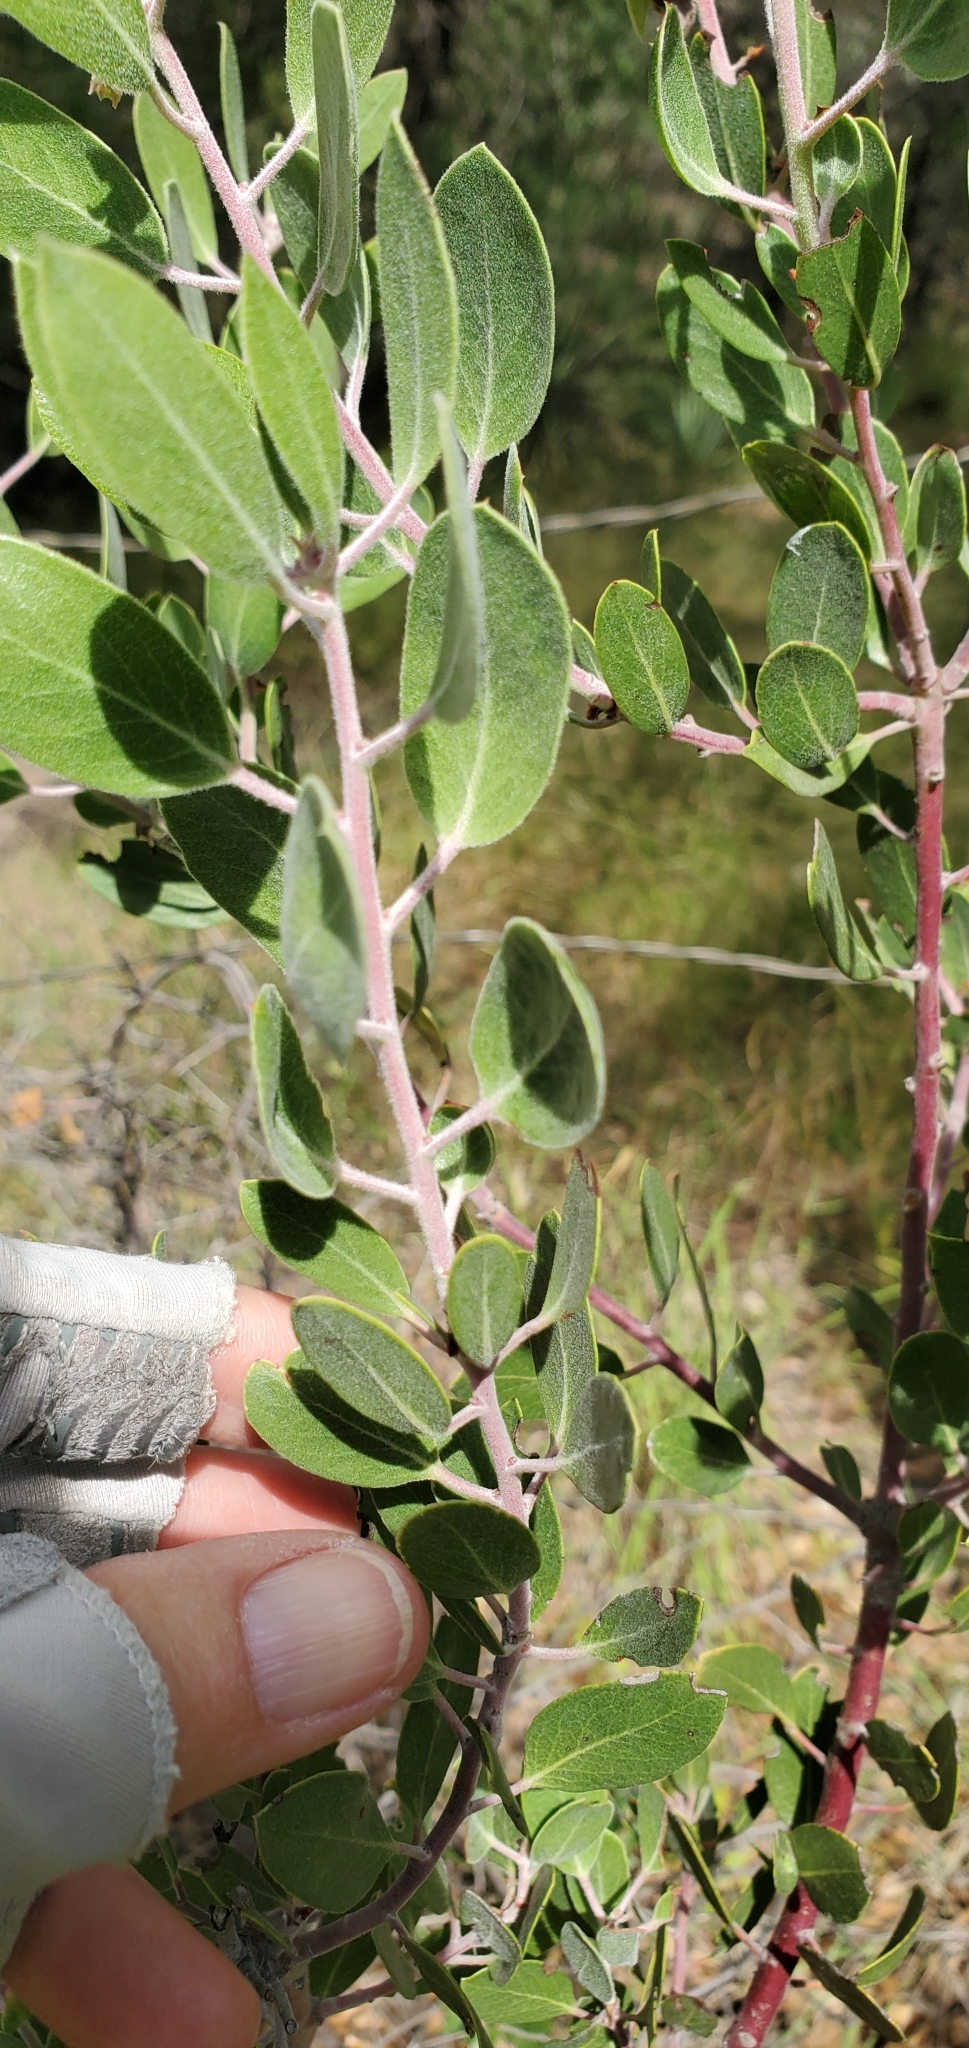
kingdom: Plantae
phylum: Tracheophyta
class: Magnoliopsida
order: Ericales
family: Ericaceae
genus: Arctostaphylos
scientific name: Arctostaphylos pungens
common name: Mexican manzanita
